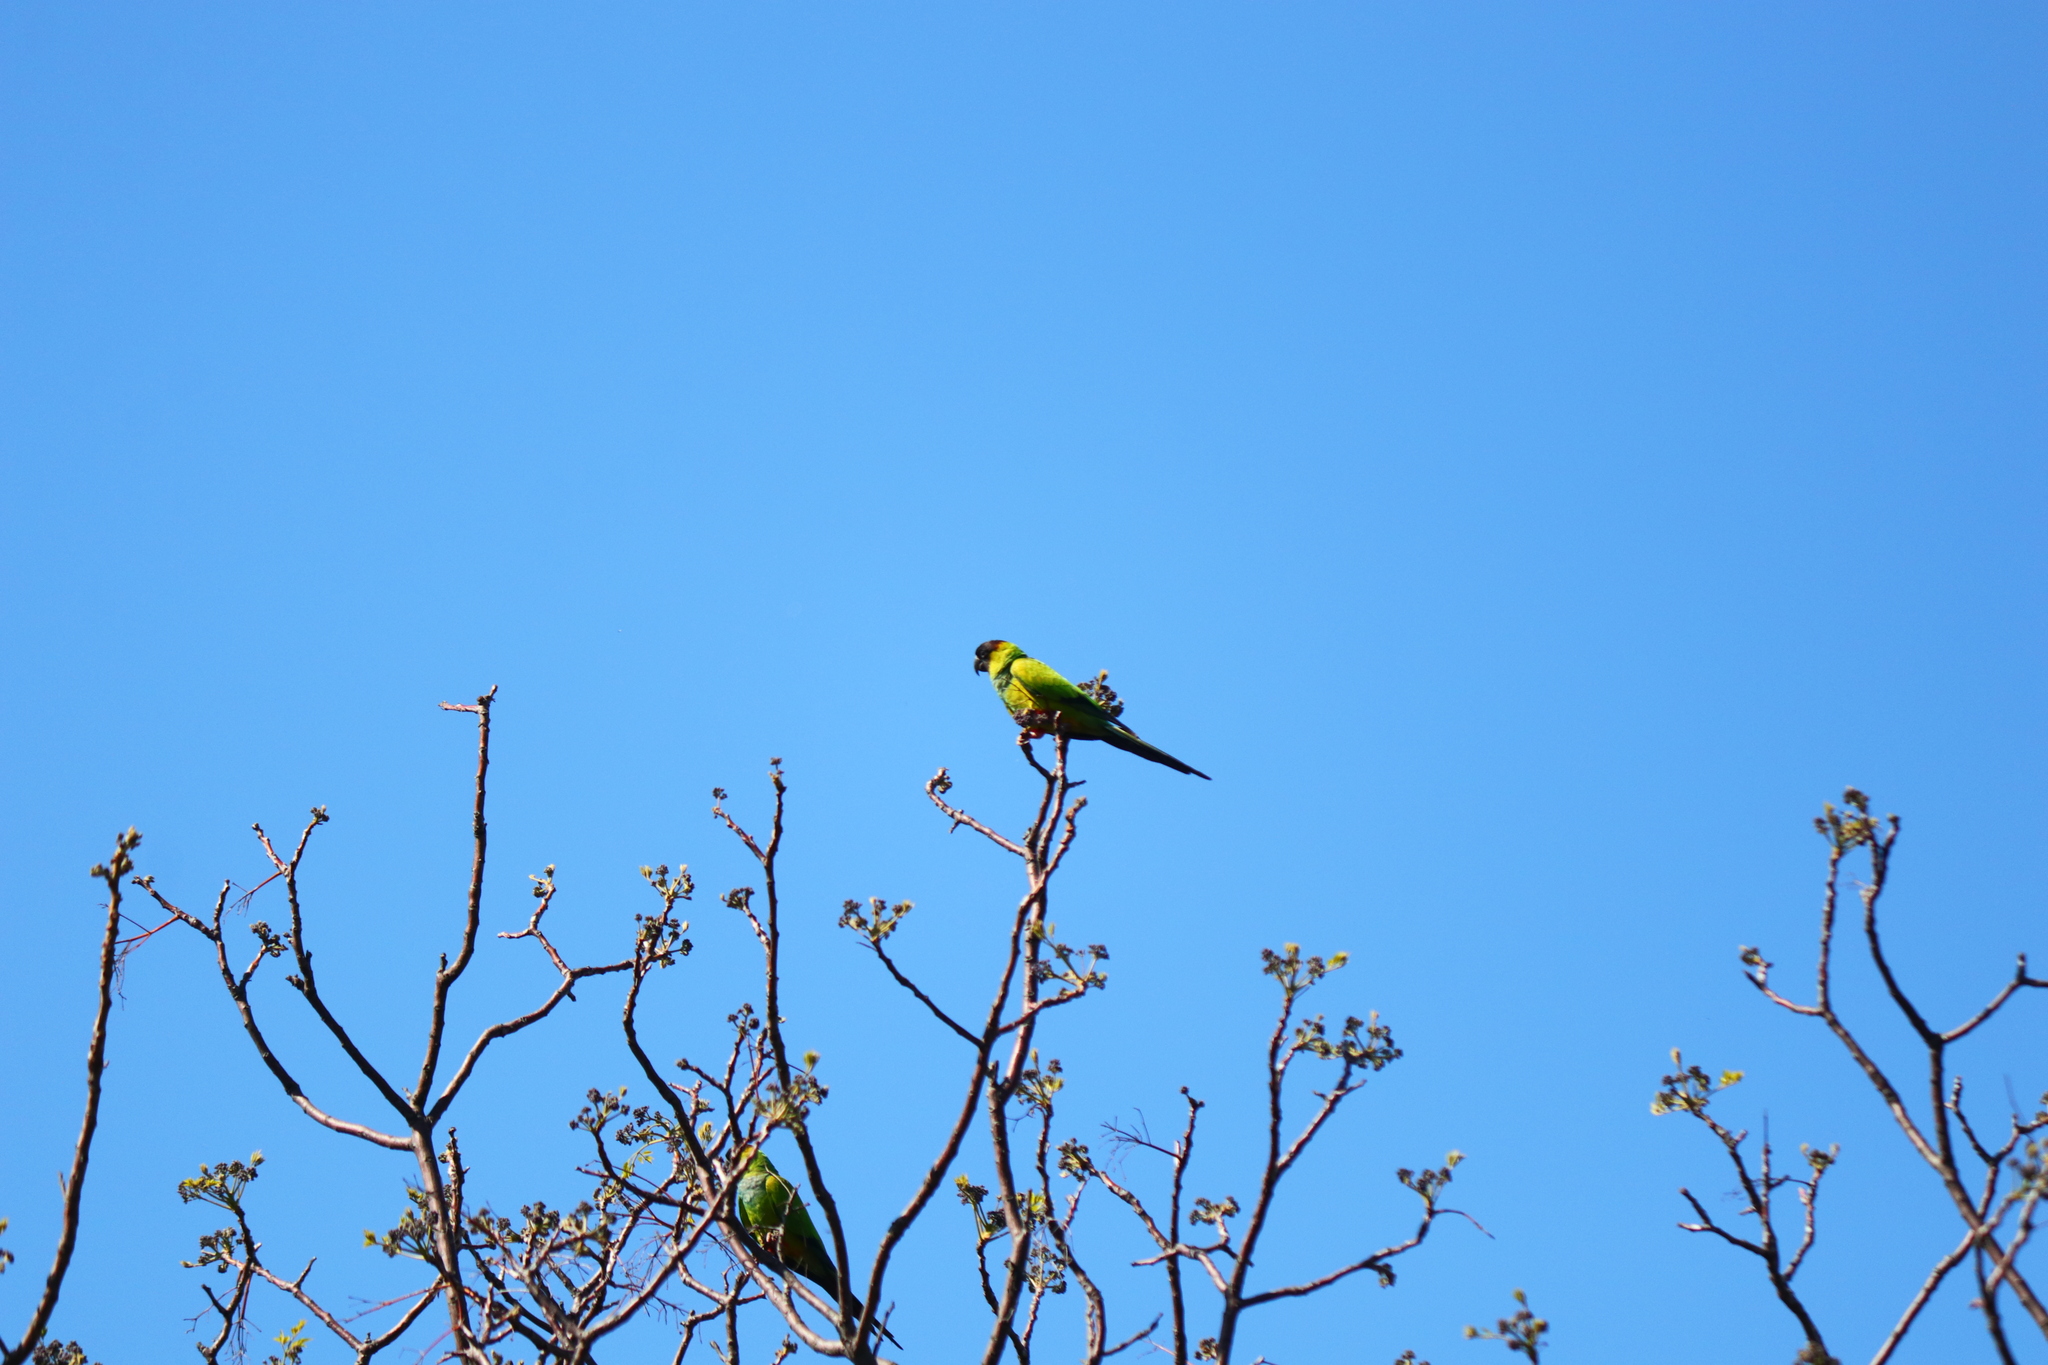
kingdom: Animalia
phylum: Chordata
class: Aves
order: Psittaciformes
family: Psittacidae
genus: Nandayus
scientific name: Nandayus nenday
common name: Nanday parakeet
